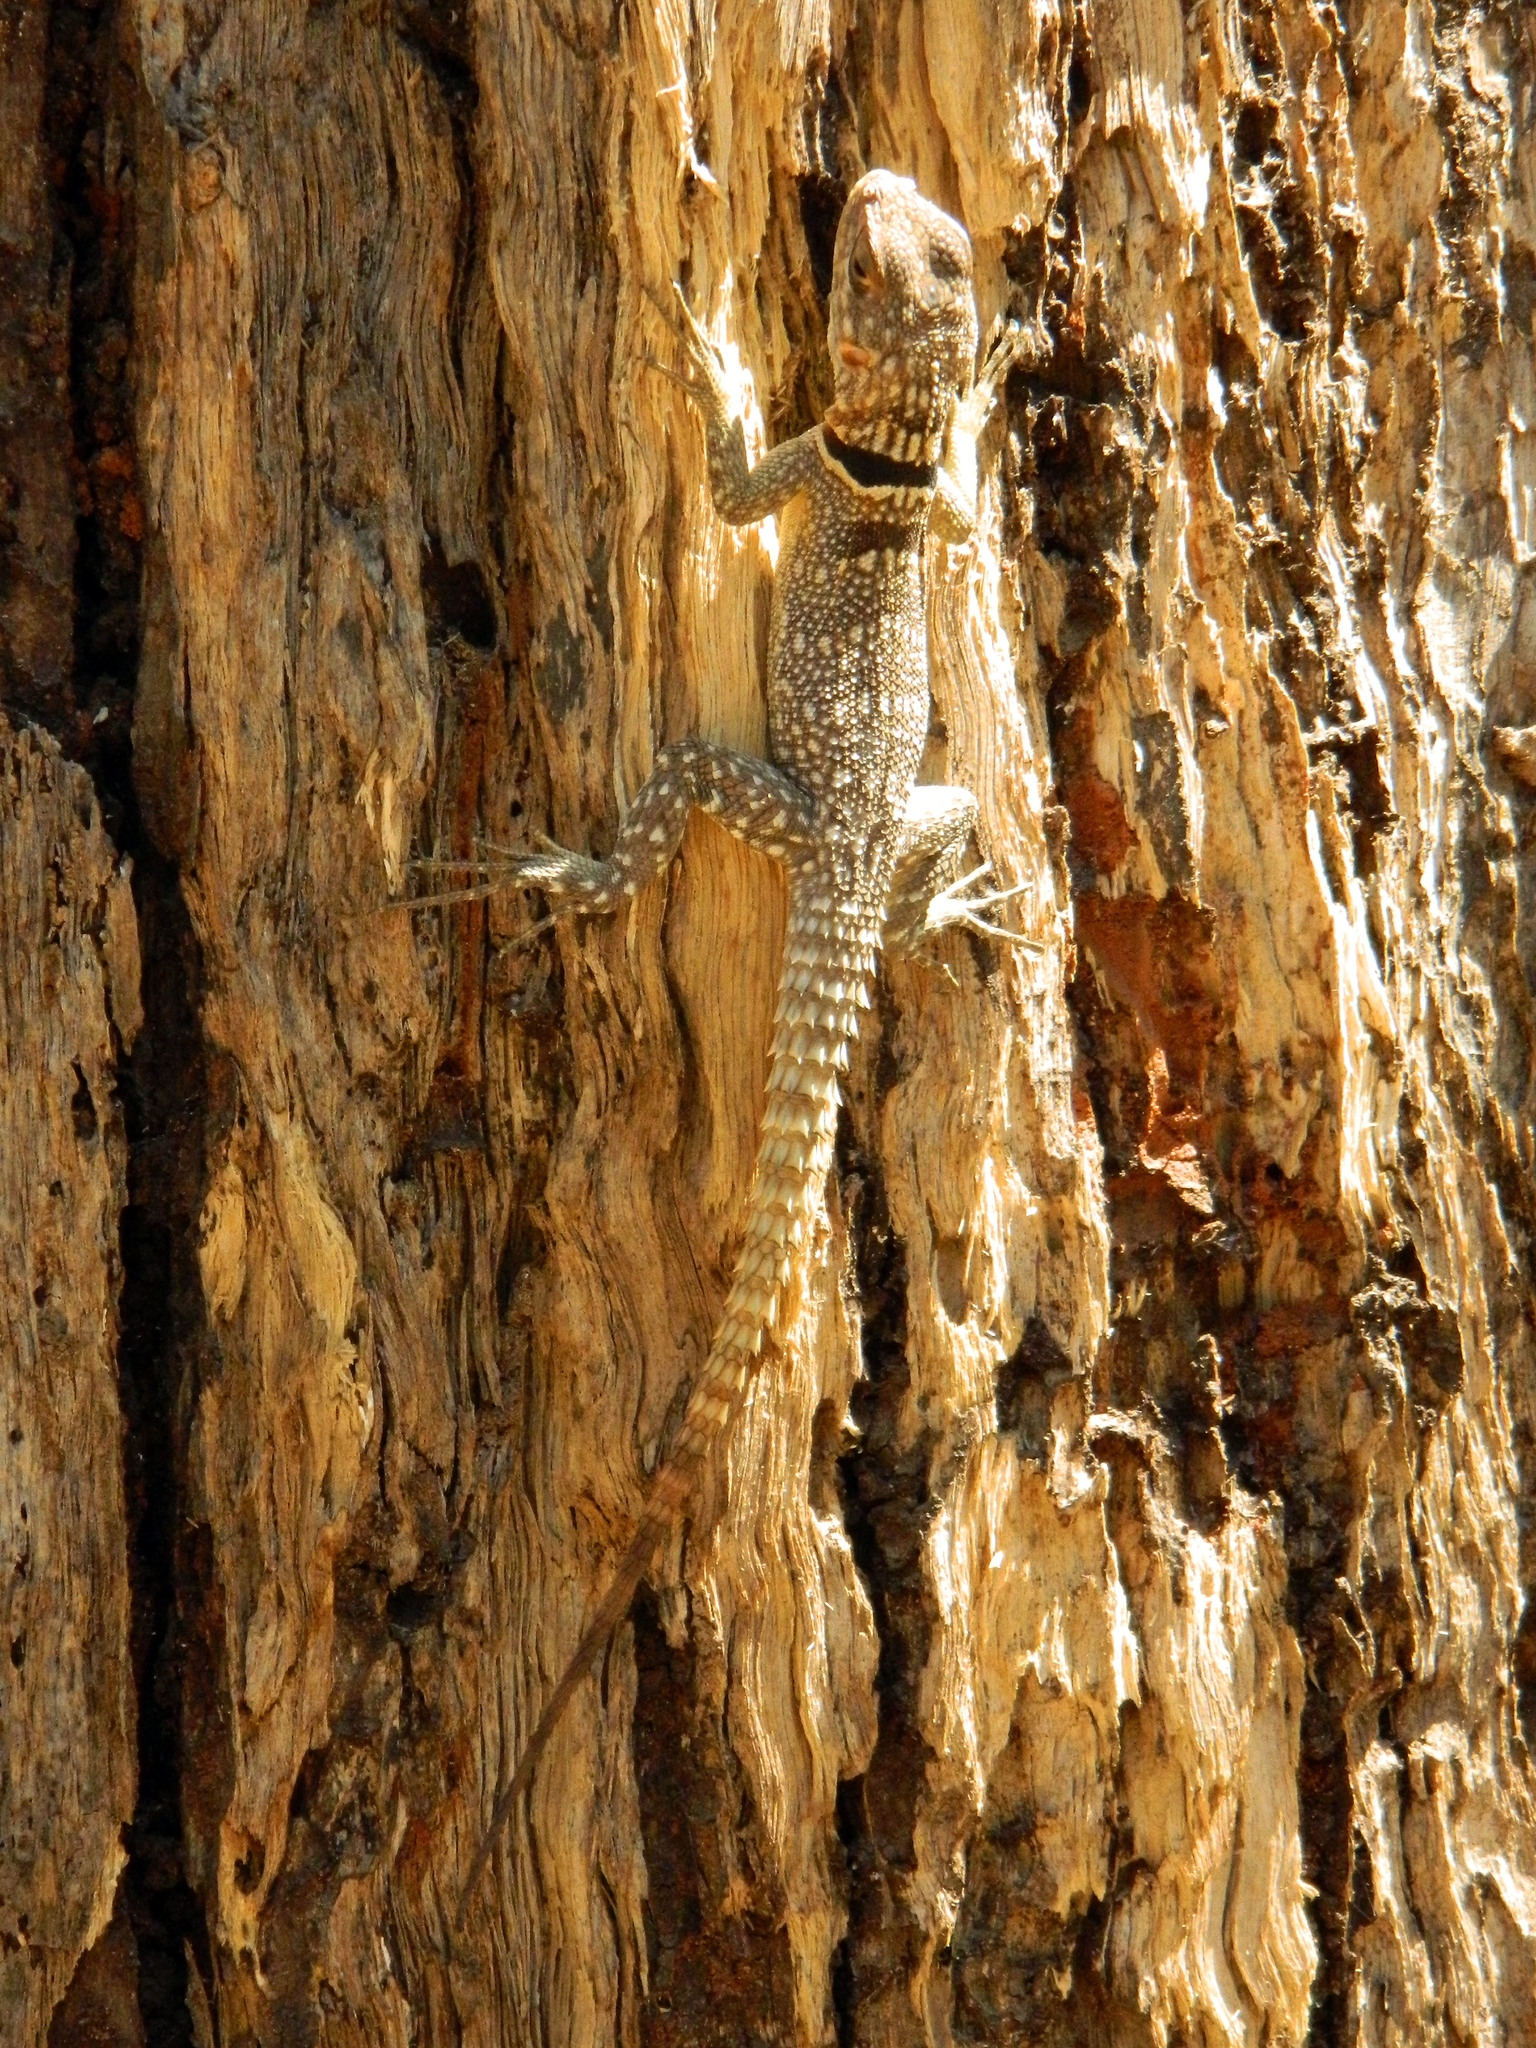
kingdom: Animalia
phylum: Chordata
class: Squamata
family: Opluridae
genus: Oplurus
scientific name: Oplurus cuvieri
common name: Cuvier's madagascar swift
